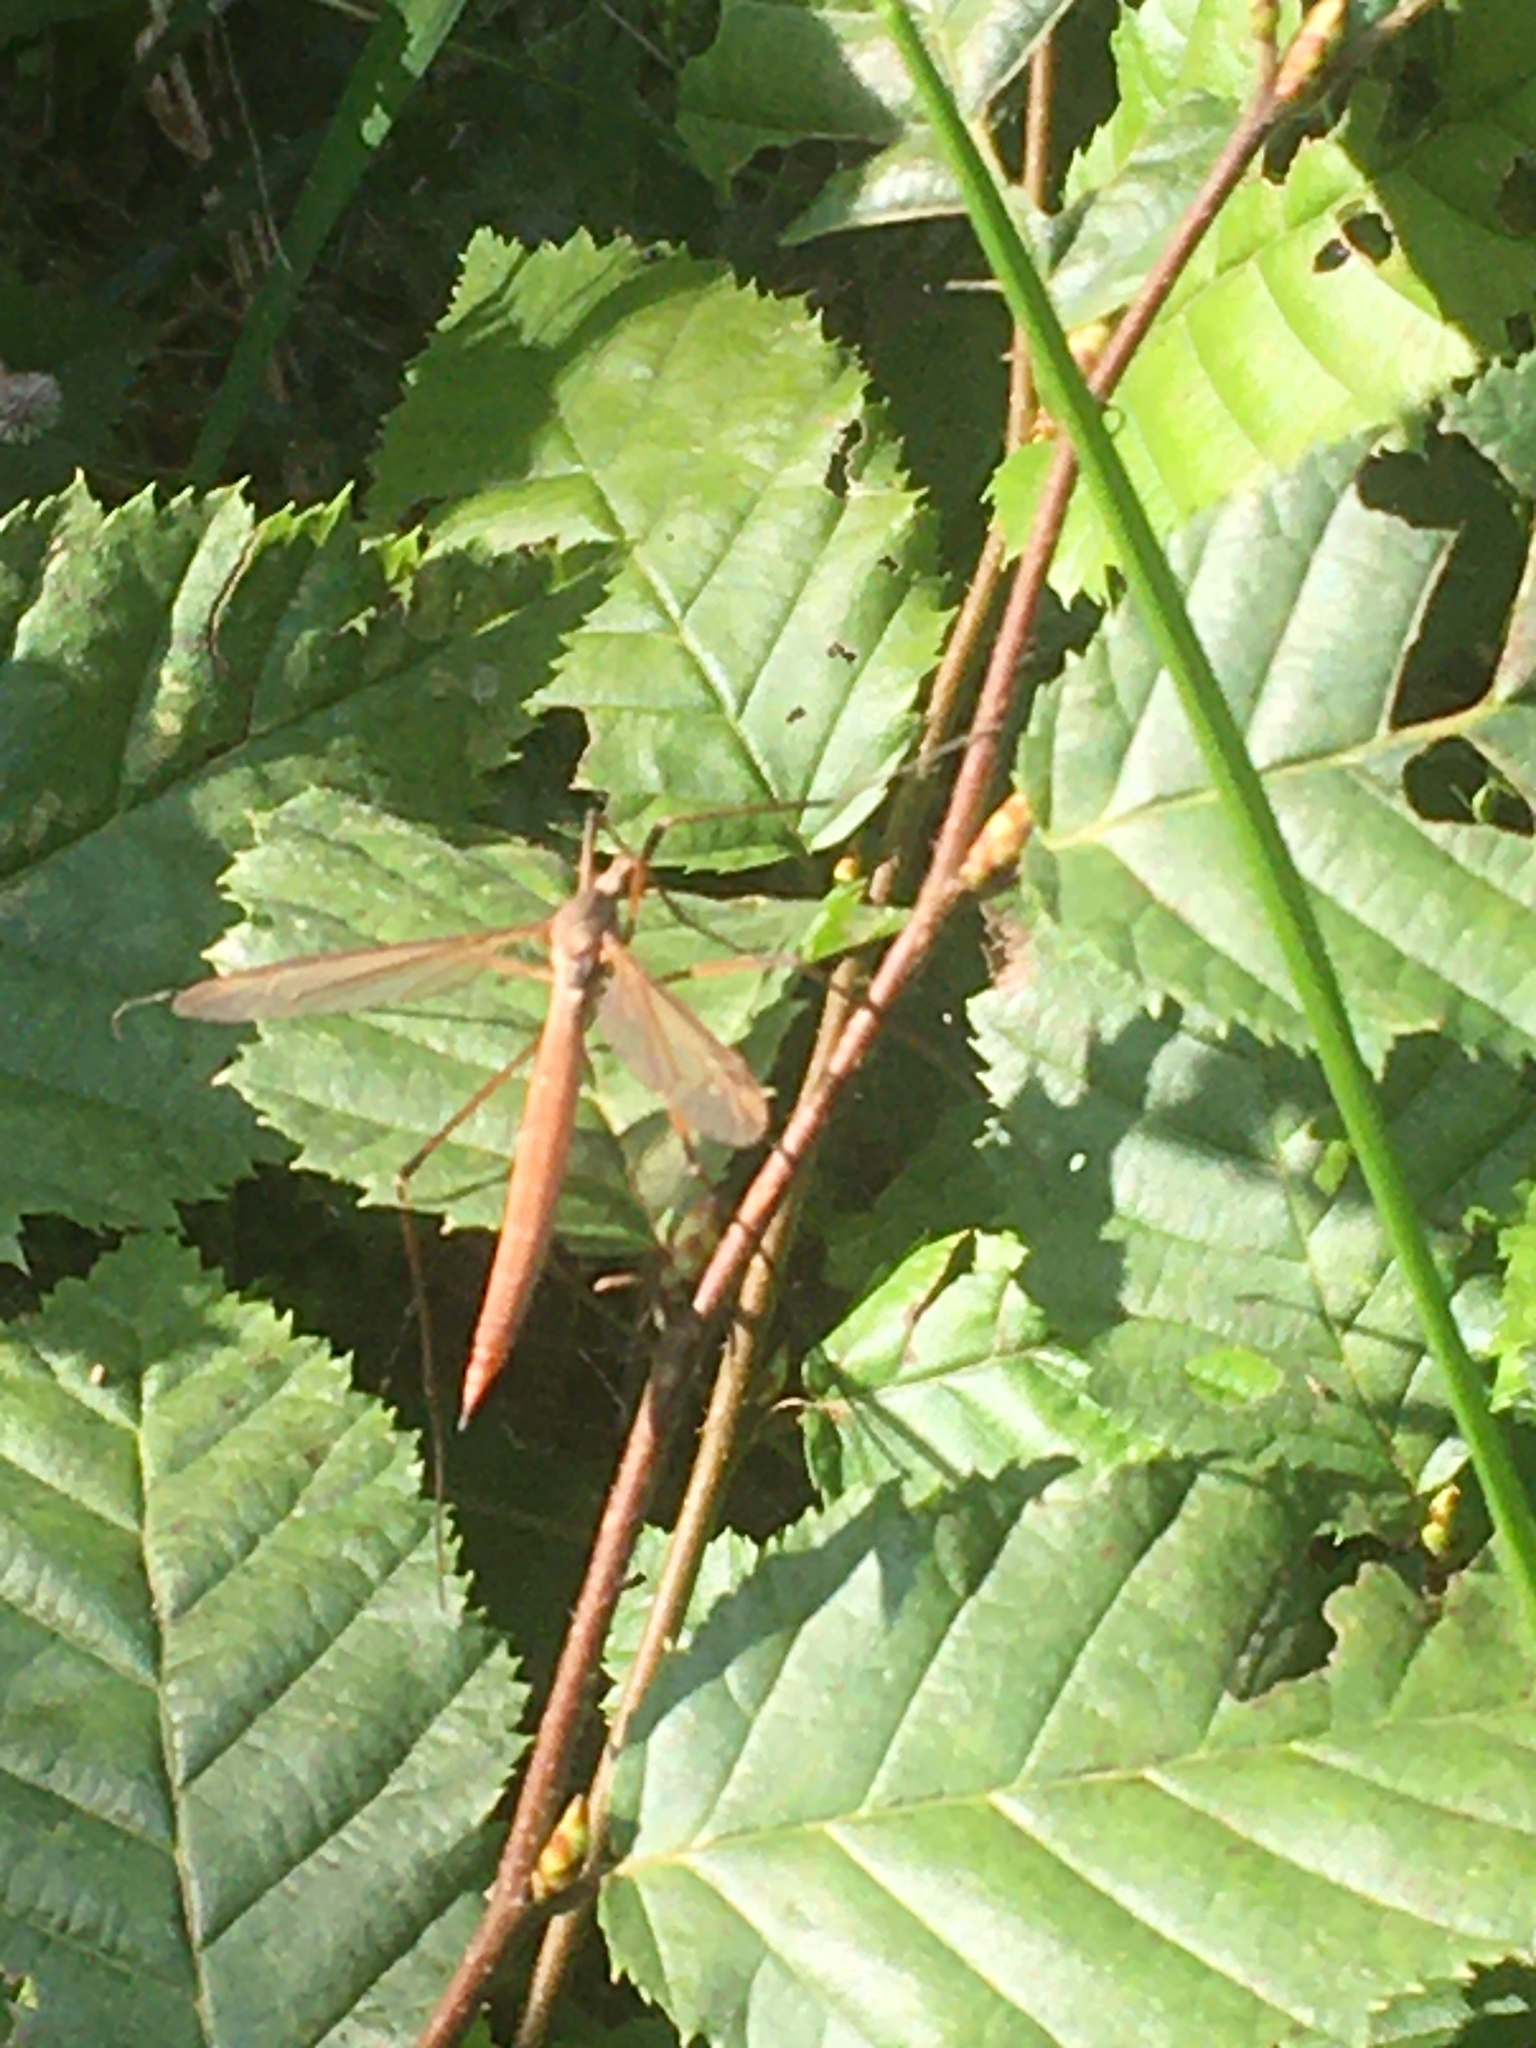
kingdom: Animalia
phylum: Arthropoda
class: Insecta
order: Diptera
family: Tipulidae
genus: Tipula
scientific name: Tipula paludosa
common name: European cranefly
